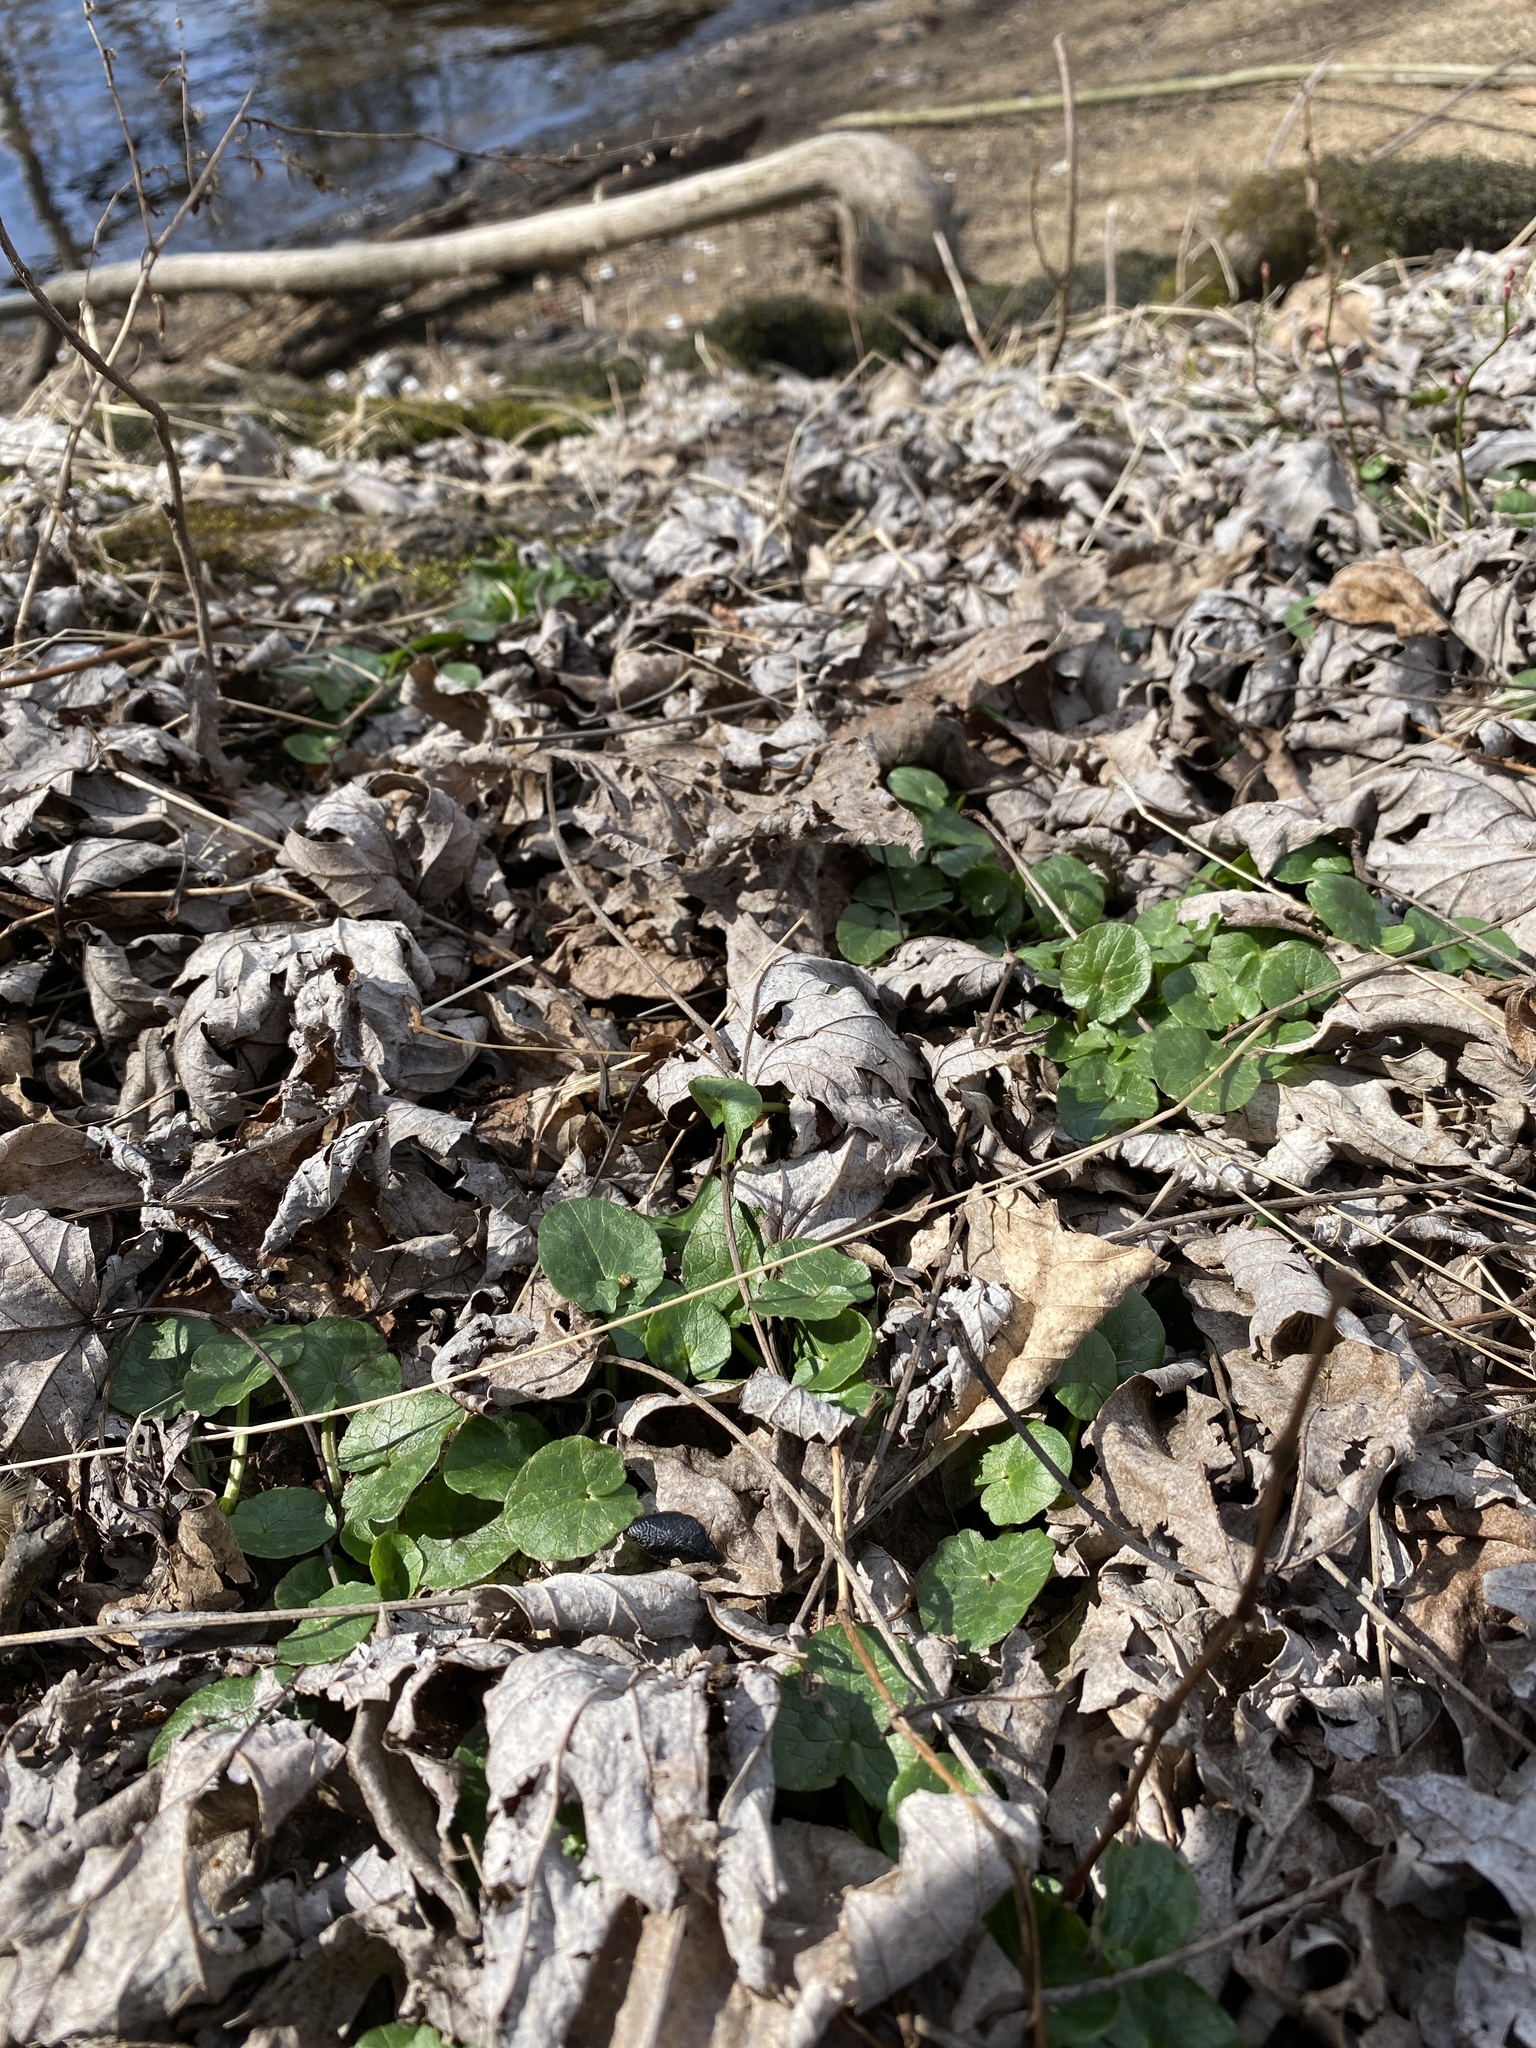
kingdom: Plantae
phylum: Tracheophyta
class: Magnoliopsida
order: Ranunculales
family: Ranunculaceae
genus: Ficaria
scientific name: Ficaria verna
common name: Lesser celandine
